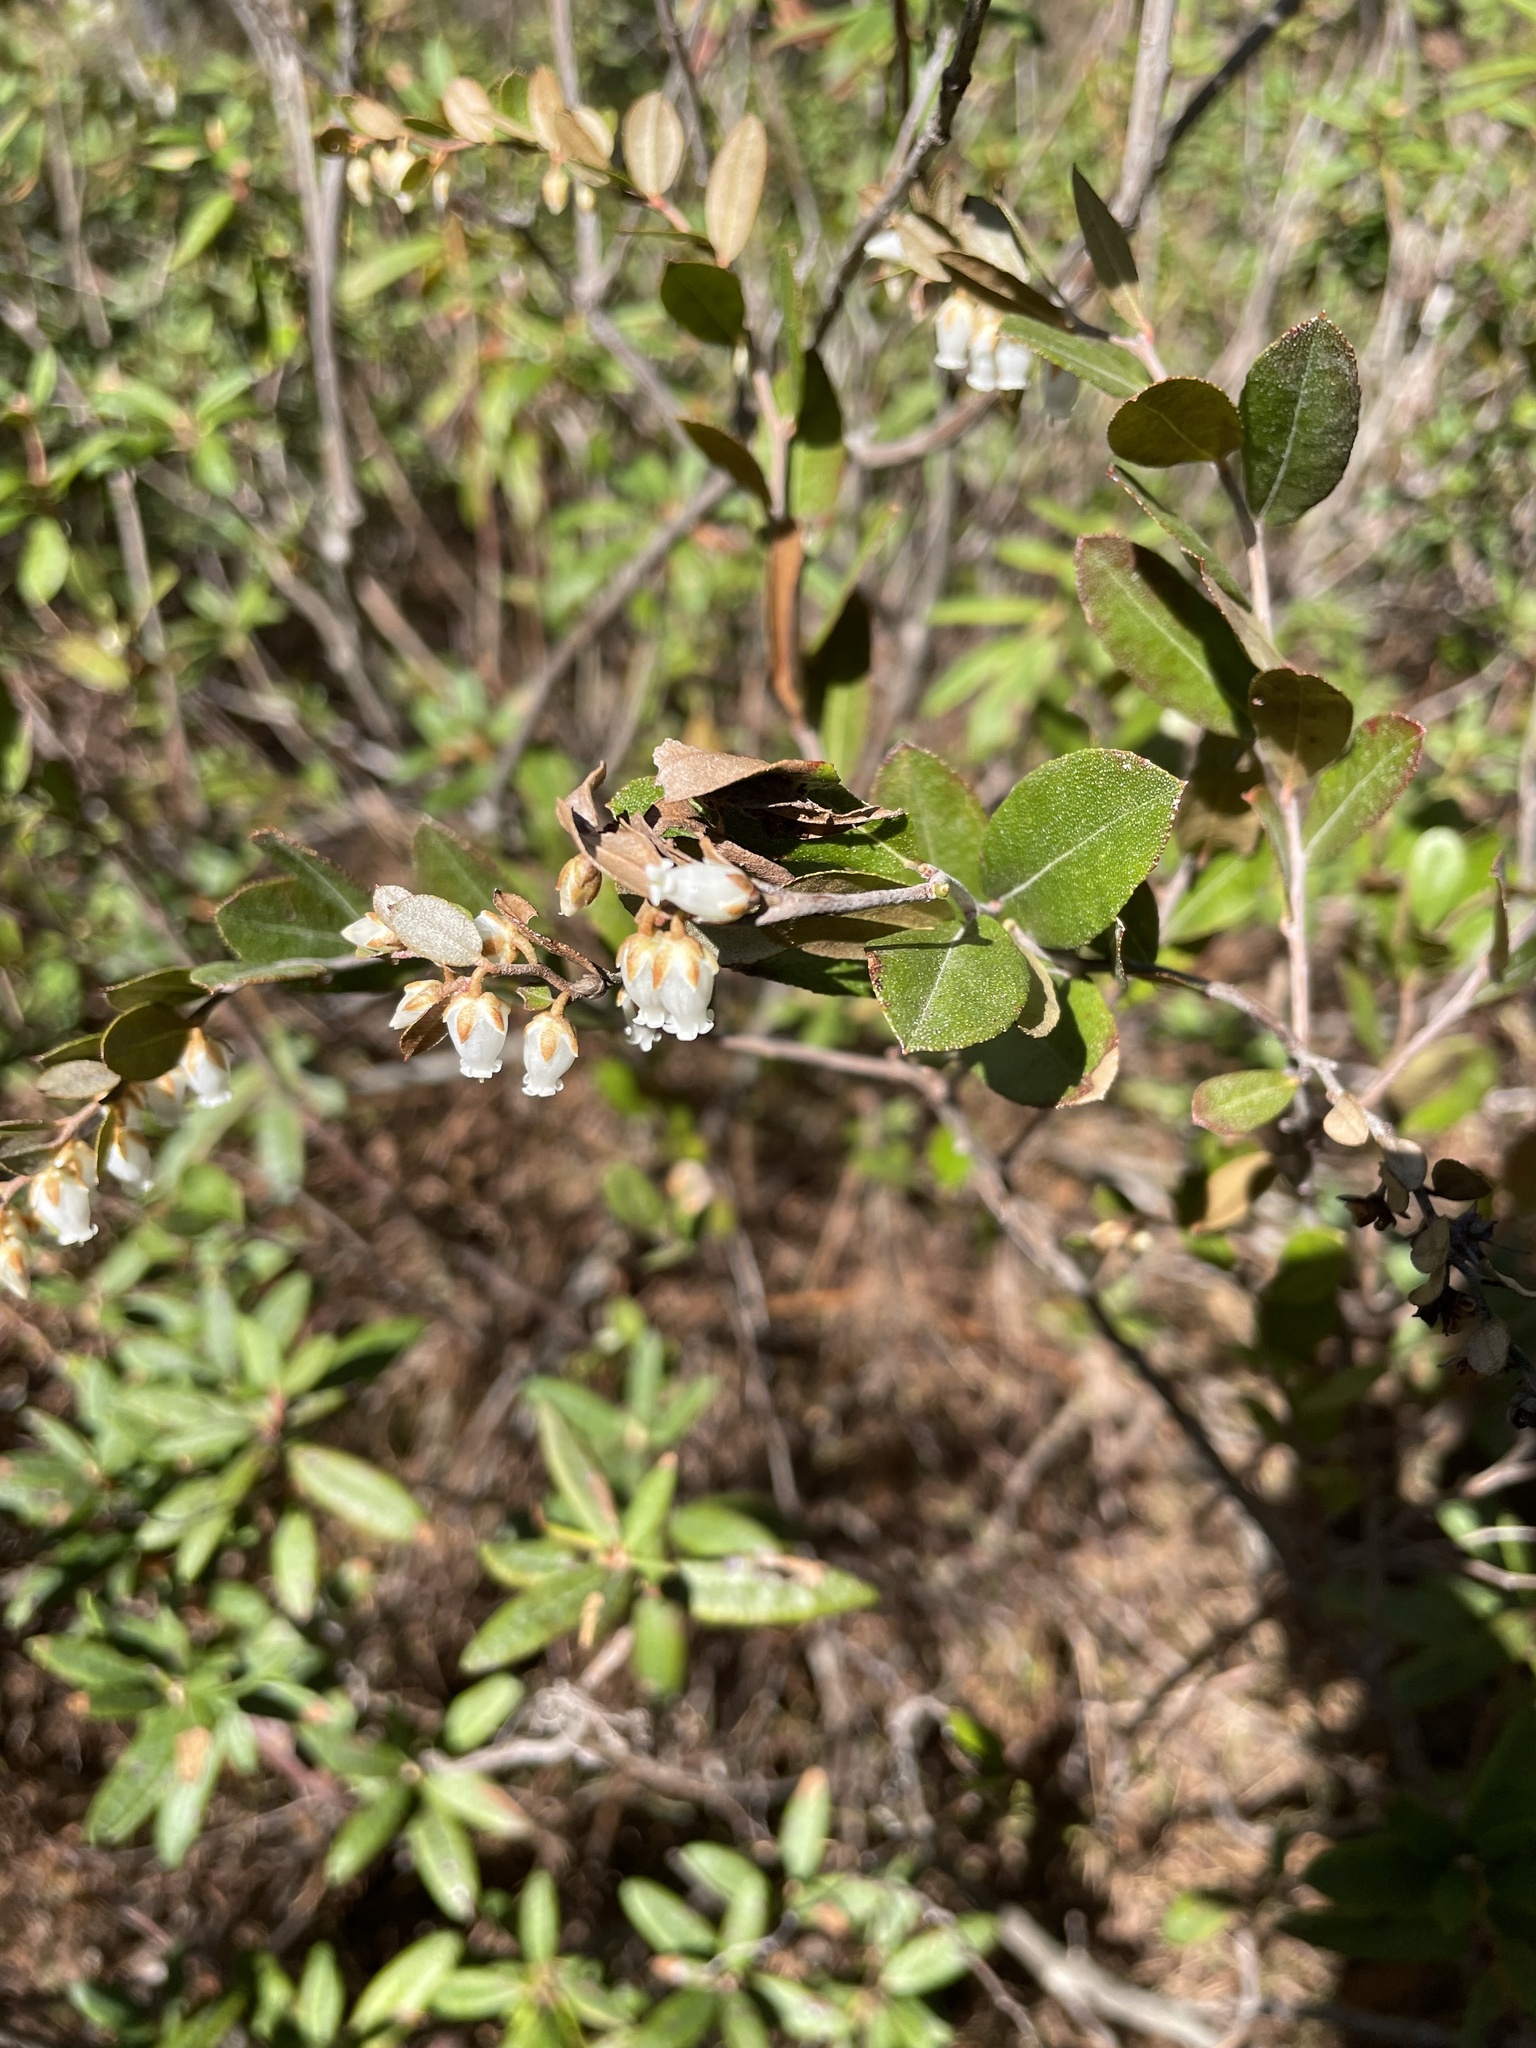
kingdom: Plantae
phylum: Tracheophyta
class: Magnoliopsida
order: Ericales
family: Ericaceae
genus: Chamaedaphne
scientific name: Chamaedaphne calyculata
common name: Leatherleaf
